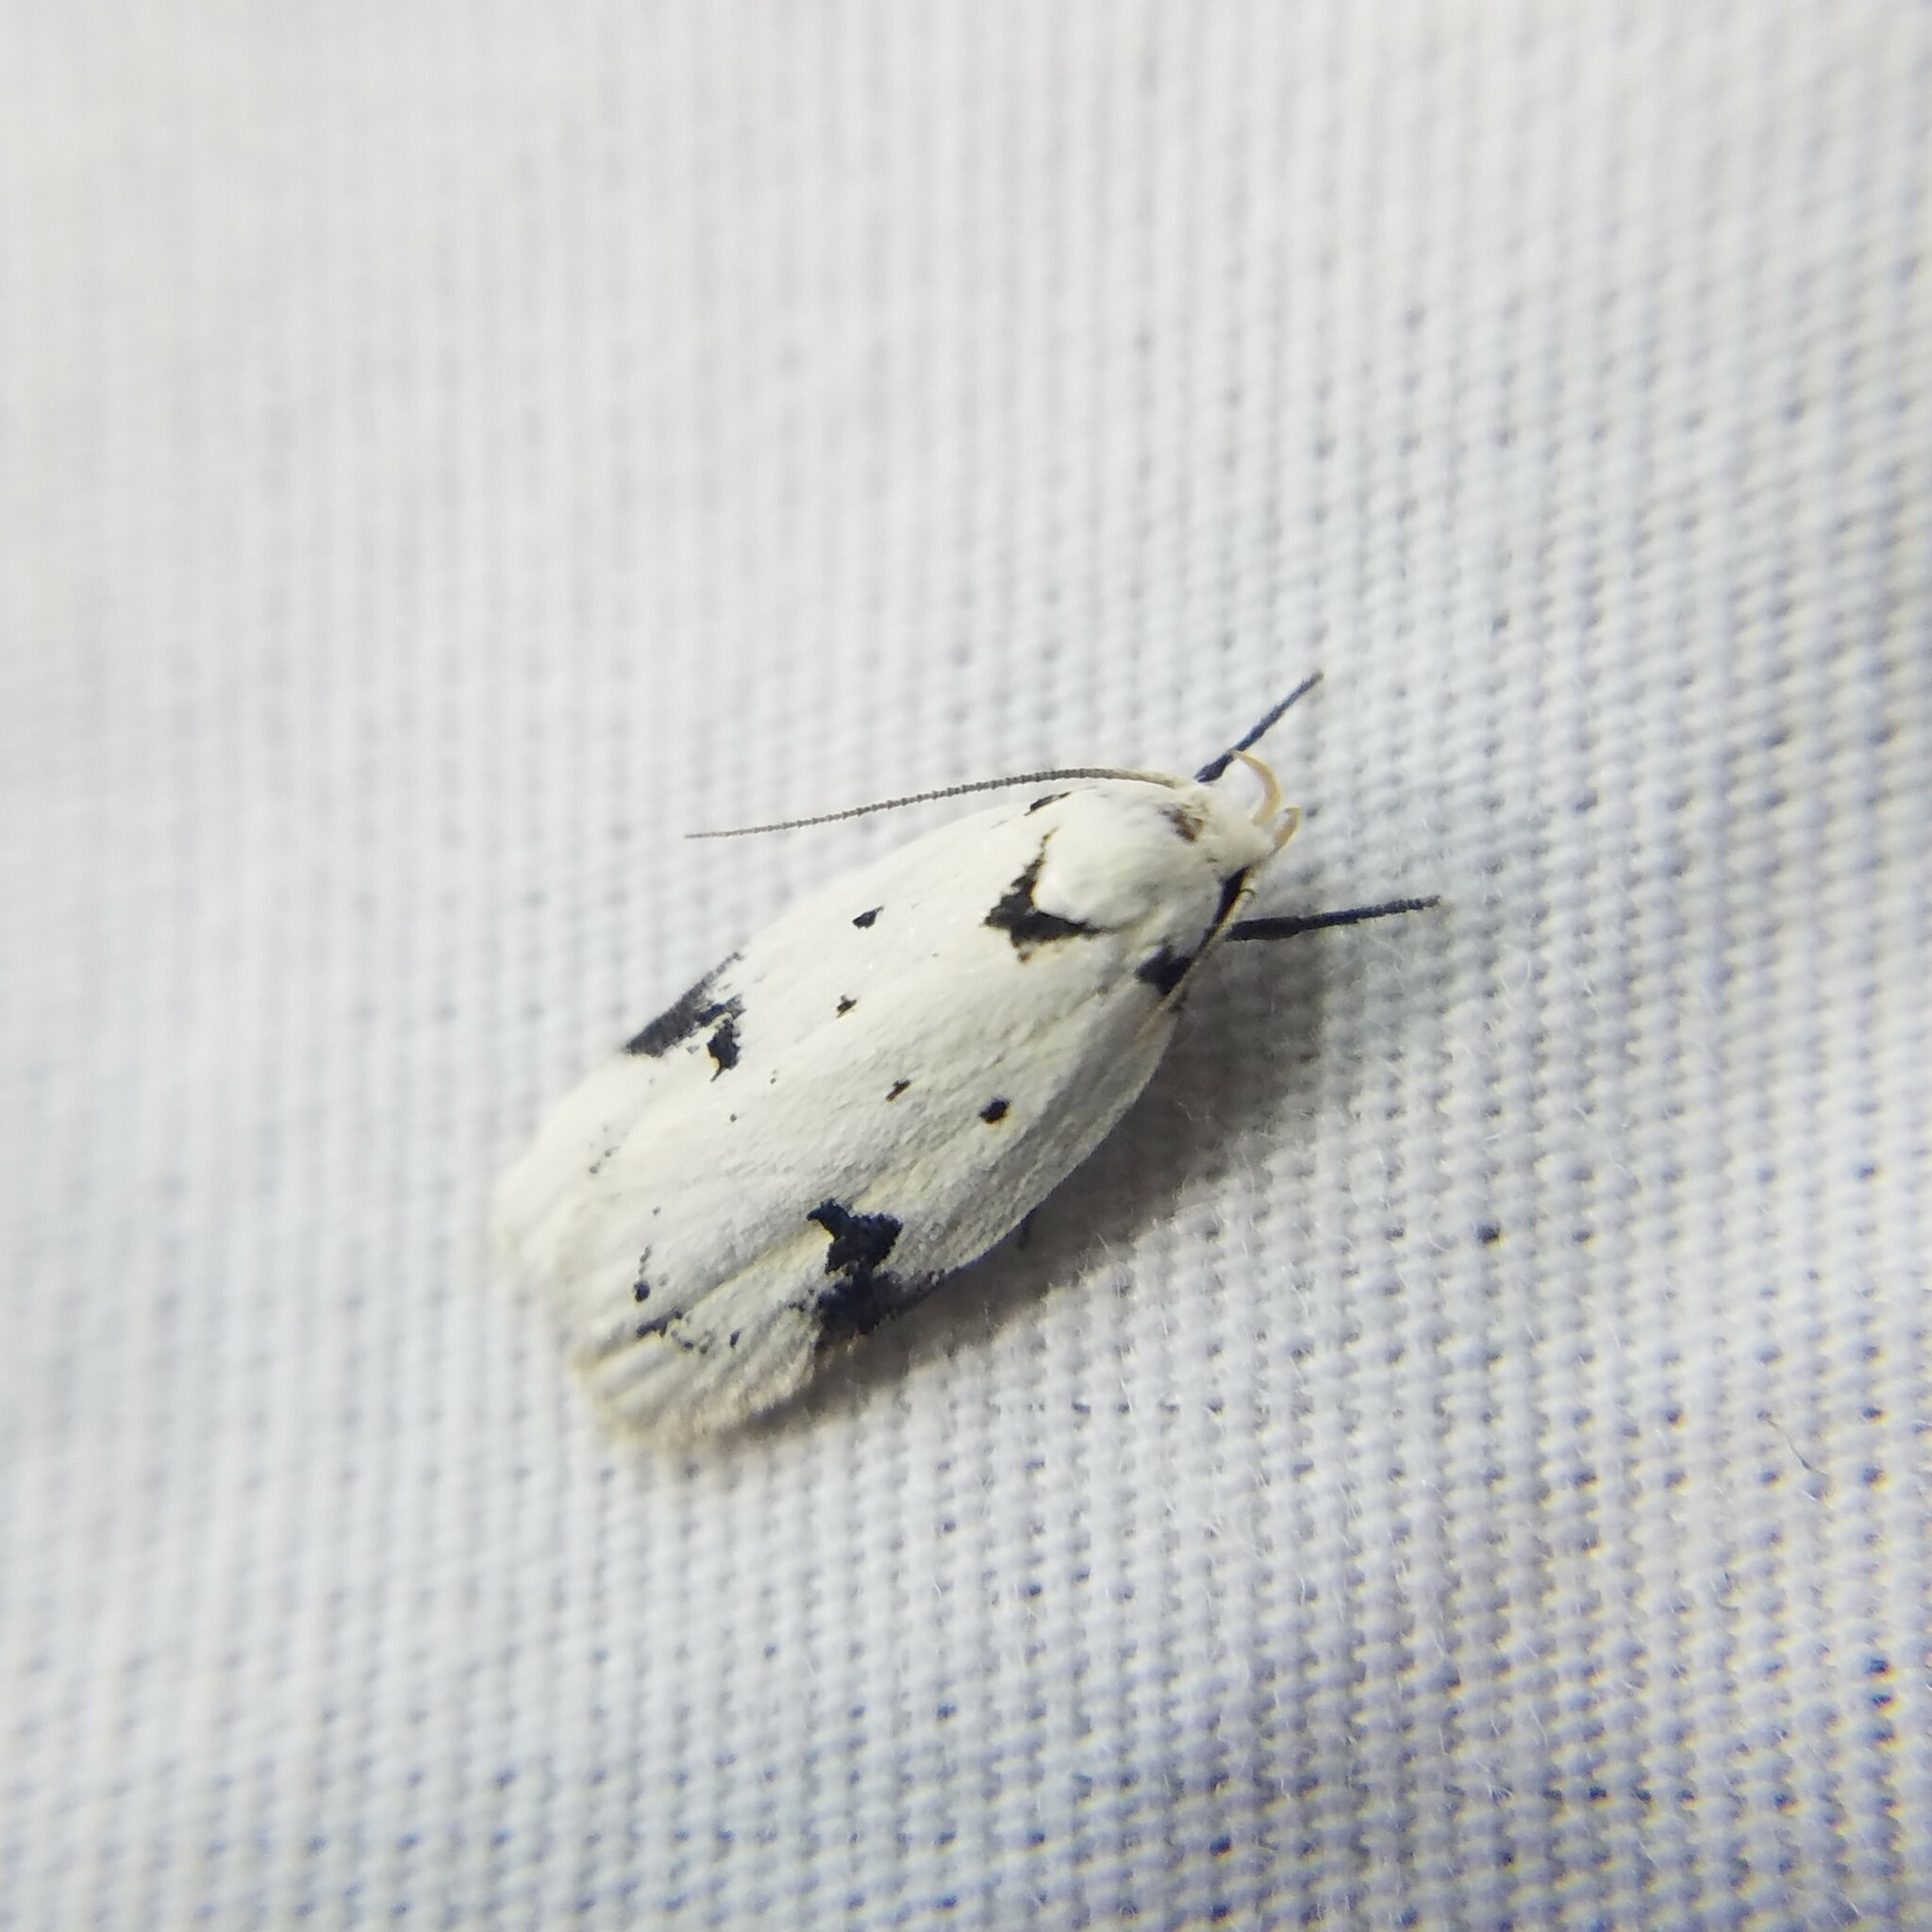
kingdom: Animalia
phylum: Arthropoda
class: Insecta
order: Lepidoptera
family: Oecophoridae
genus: Inga
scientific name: Inga sparsiciliella
